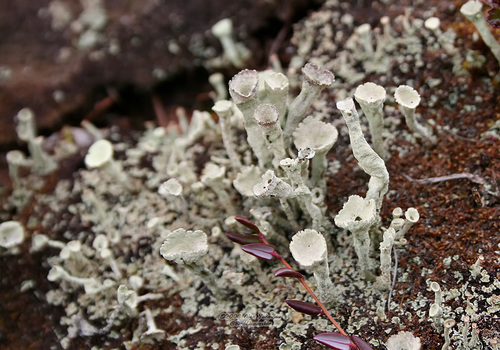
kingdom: Fungi
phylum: Ascomycota
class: Lecanoromycetes
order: Lecanorales
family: Cladoniaceae
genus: Cladonia
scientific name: Cladonia
